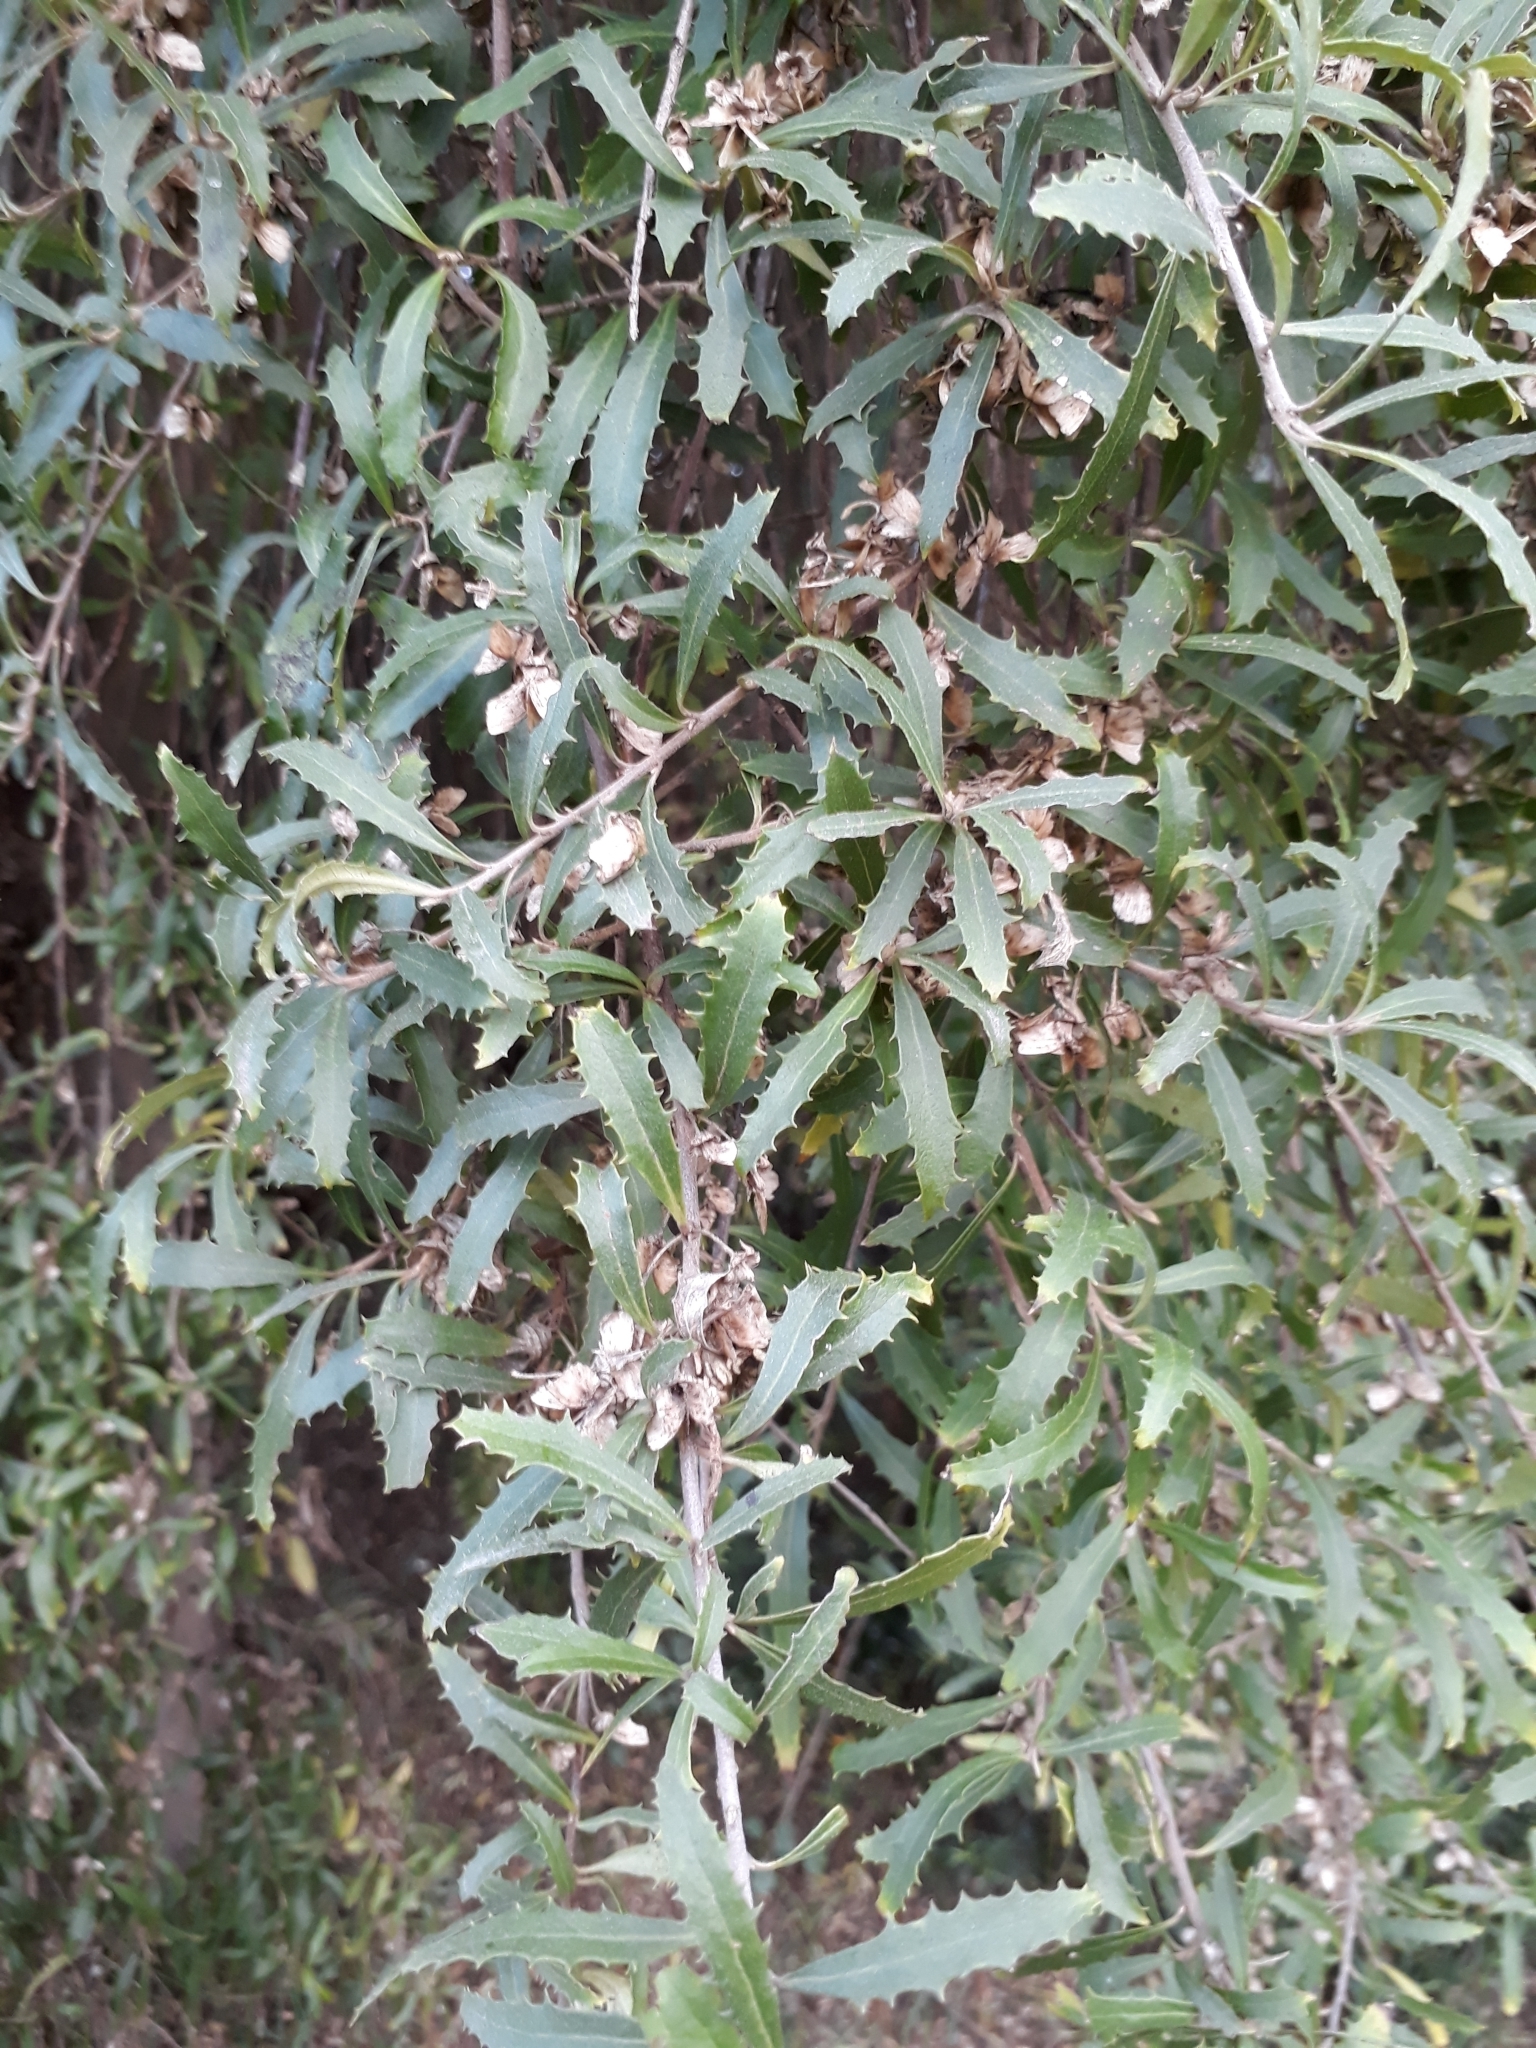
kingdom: Plantae
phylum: Tracheophyta
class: Magnoliopsida
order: Malvales
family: Malvaceae
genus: Hoheria
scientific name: Hoheria angustifolia
